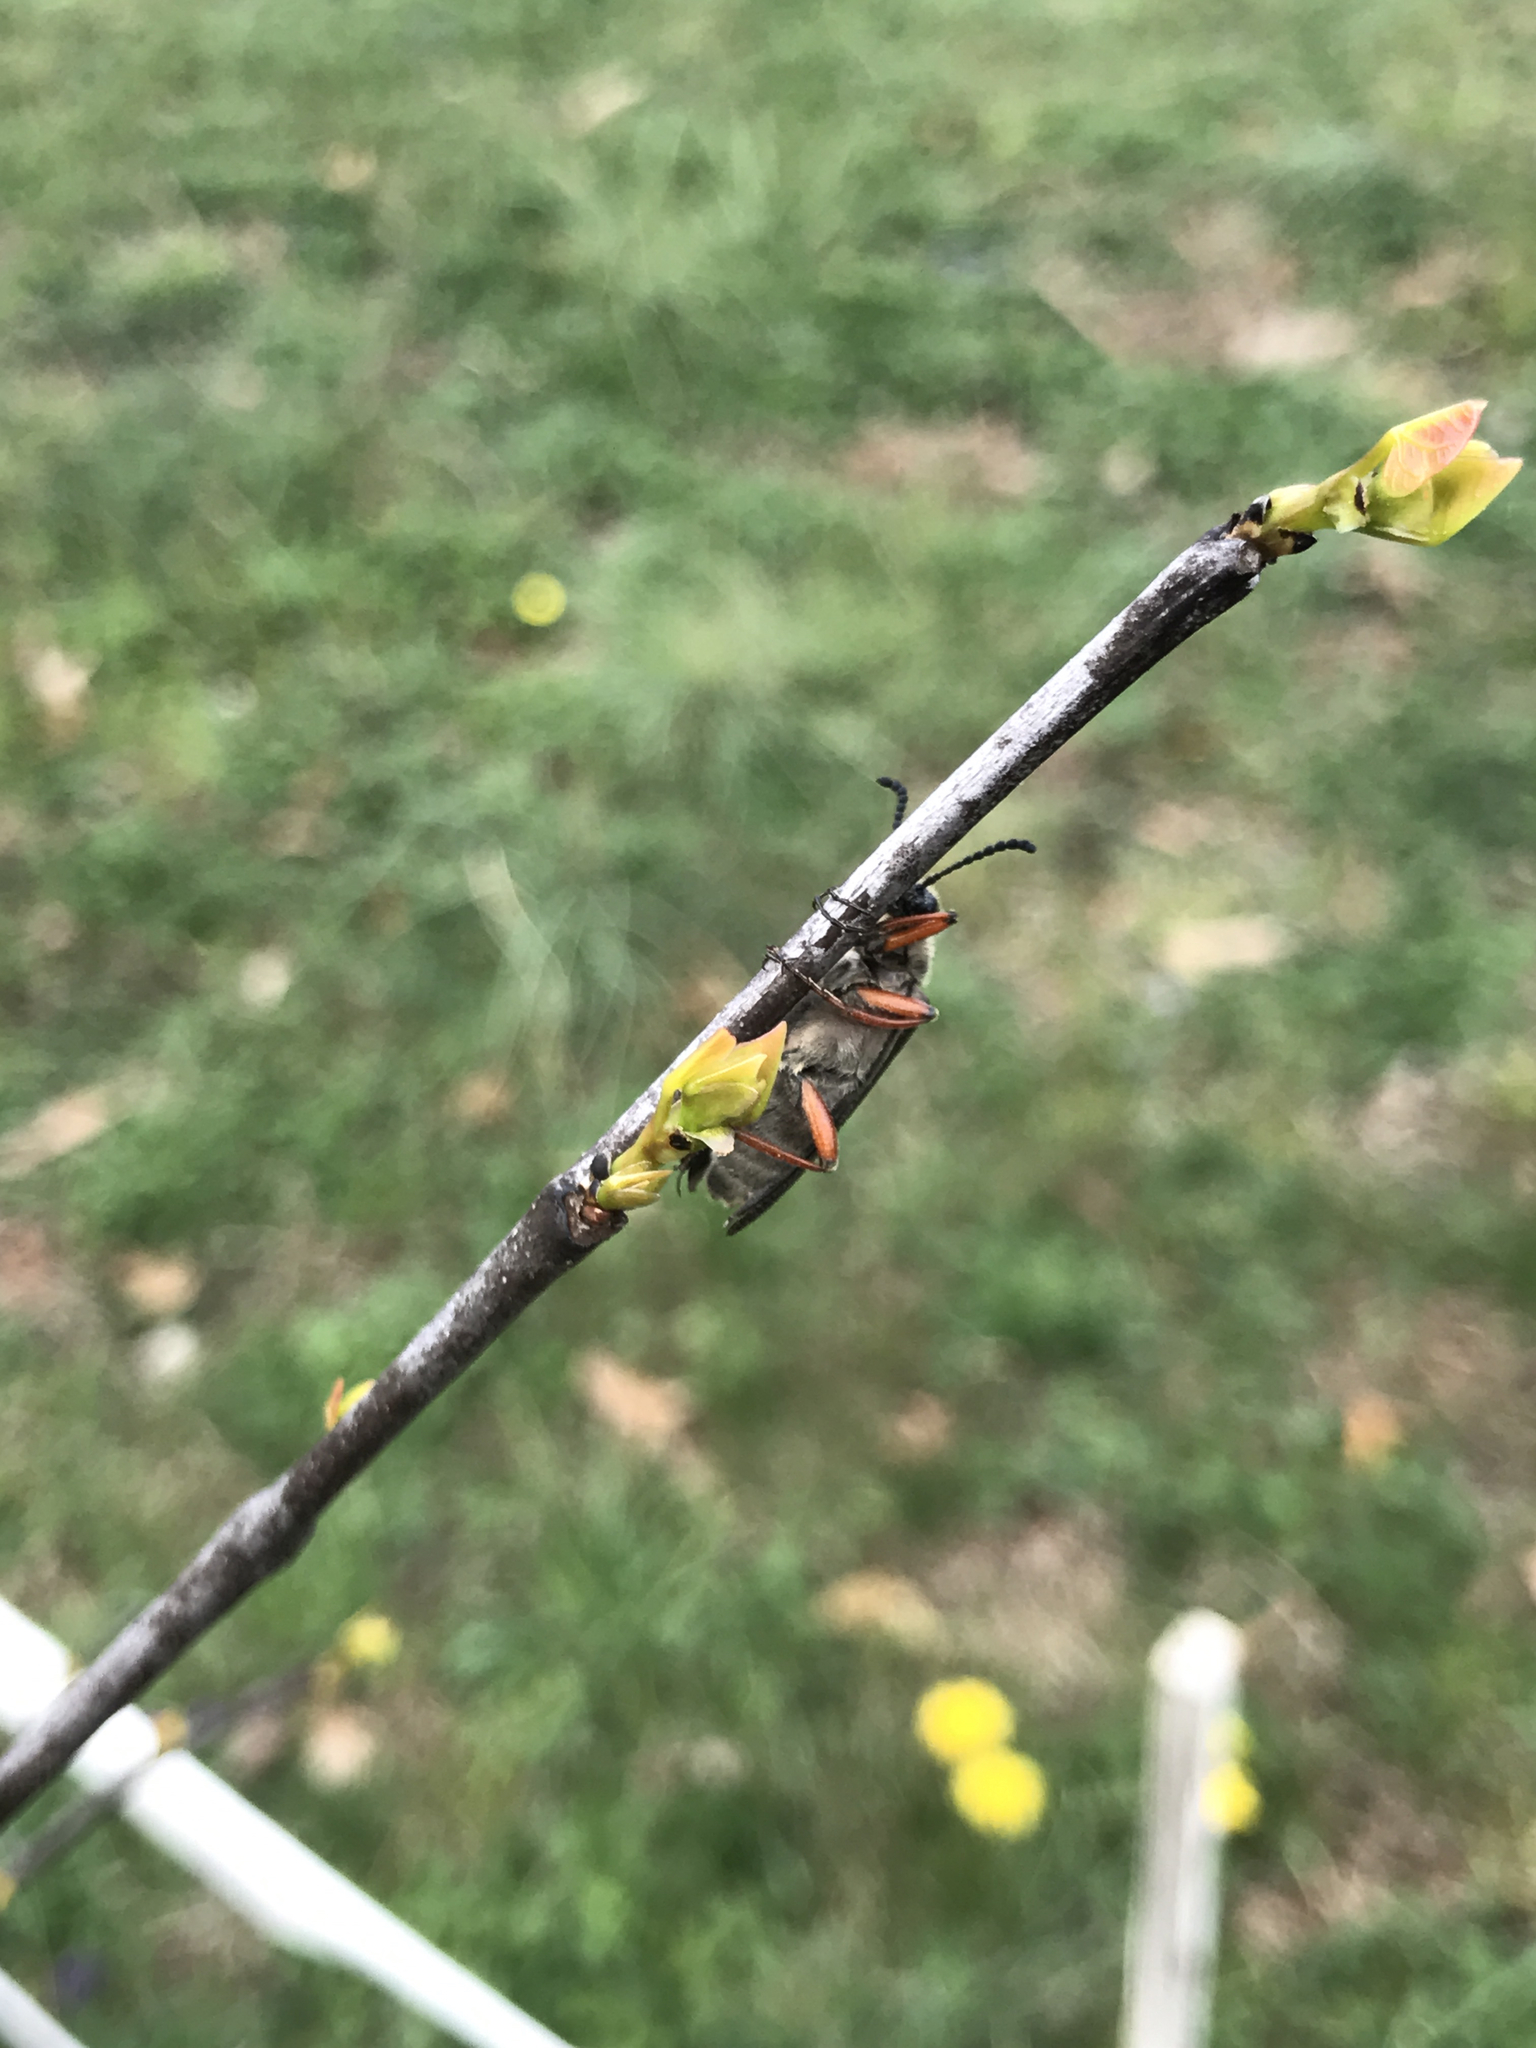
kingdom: Animalia
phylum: Arthropoda
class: Insecta
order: Coleoptera
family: Meloidae
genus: Lytta
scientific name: Lytta aenea
